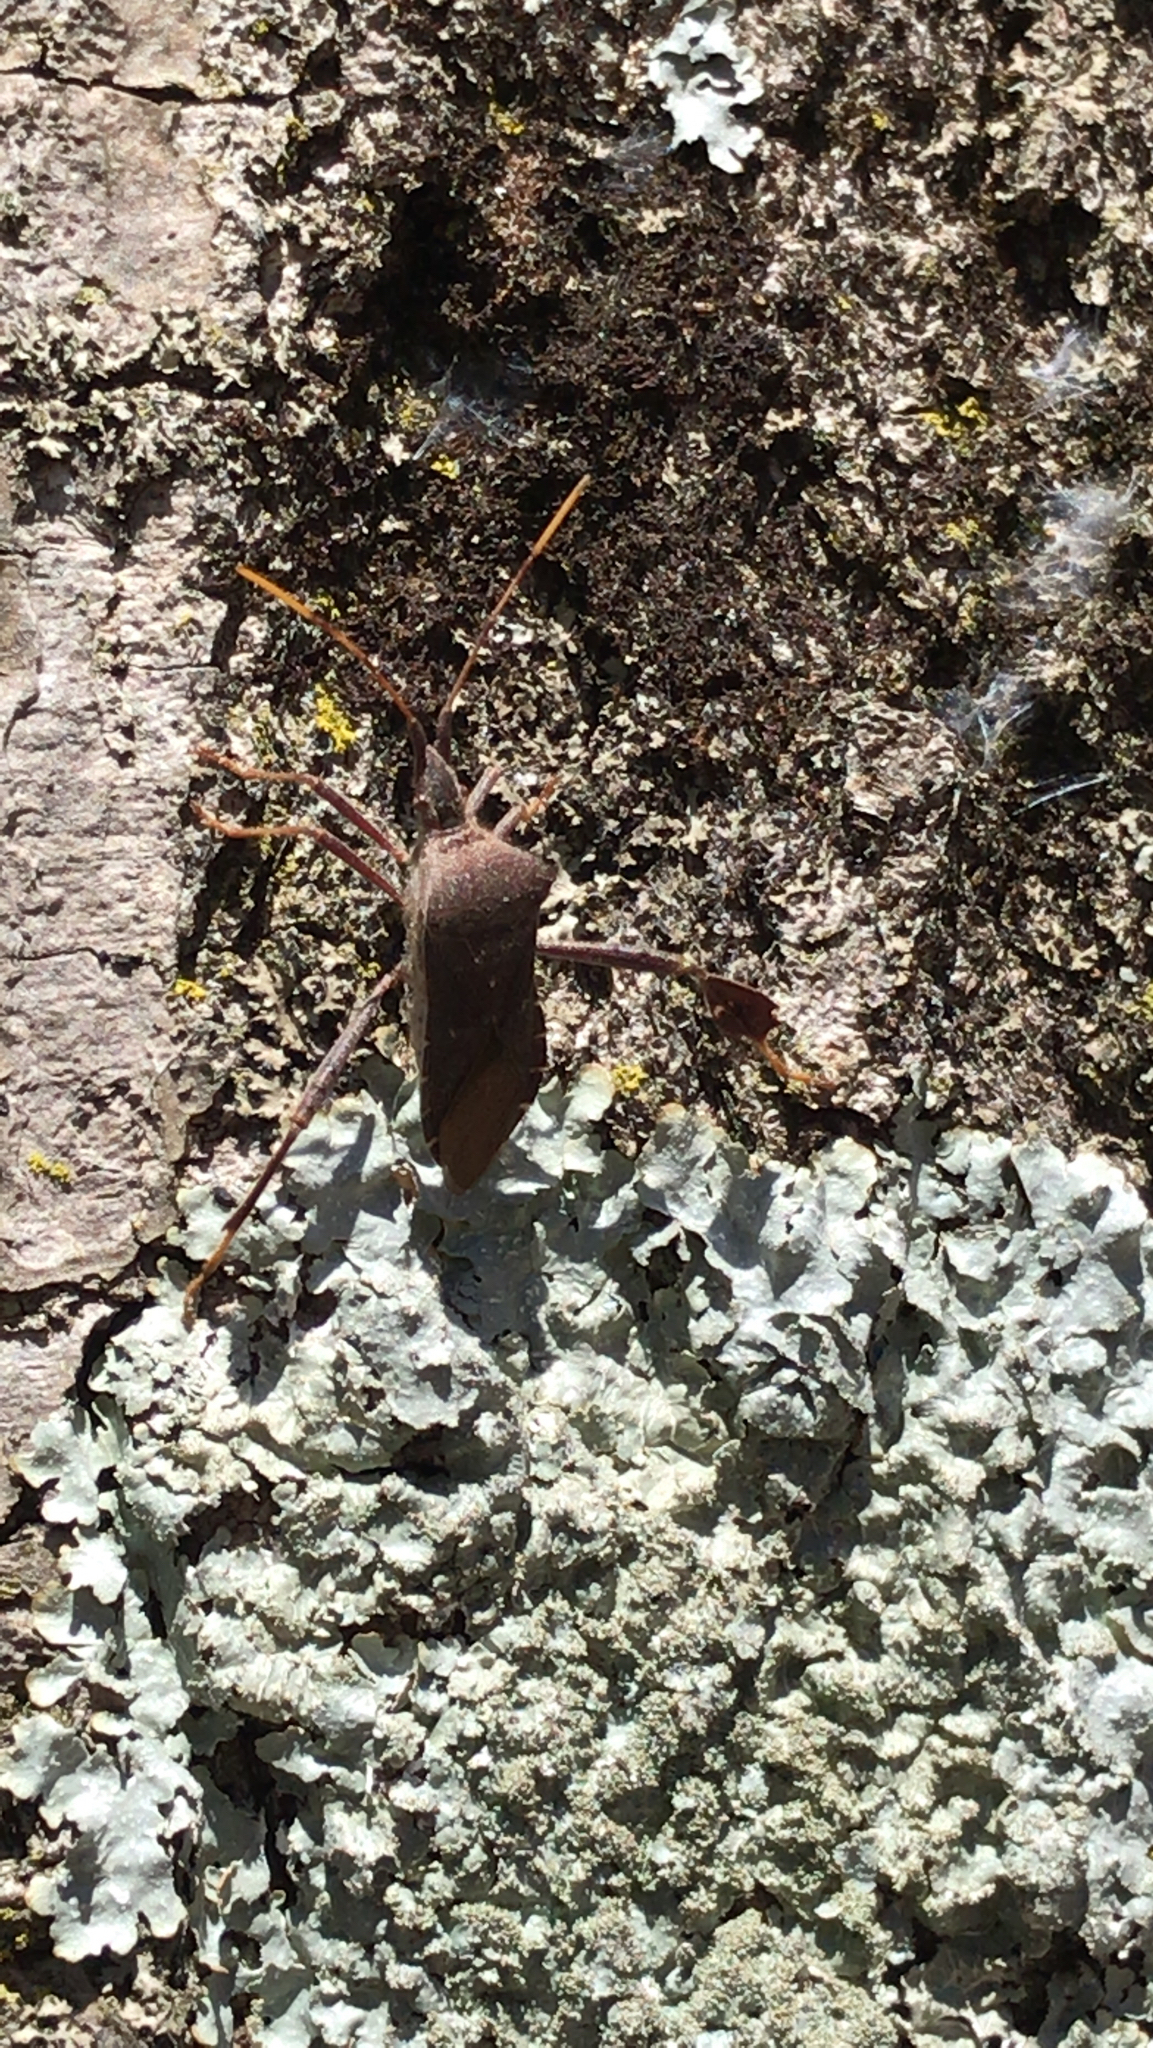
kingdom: Animalia
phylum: Arthropoda
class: Insecta
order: Hemiptera
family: Coreidae
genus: Leptoglossus
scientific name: Leptoglossus oppositus
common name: Northern leaf-footed bug
